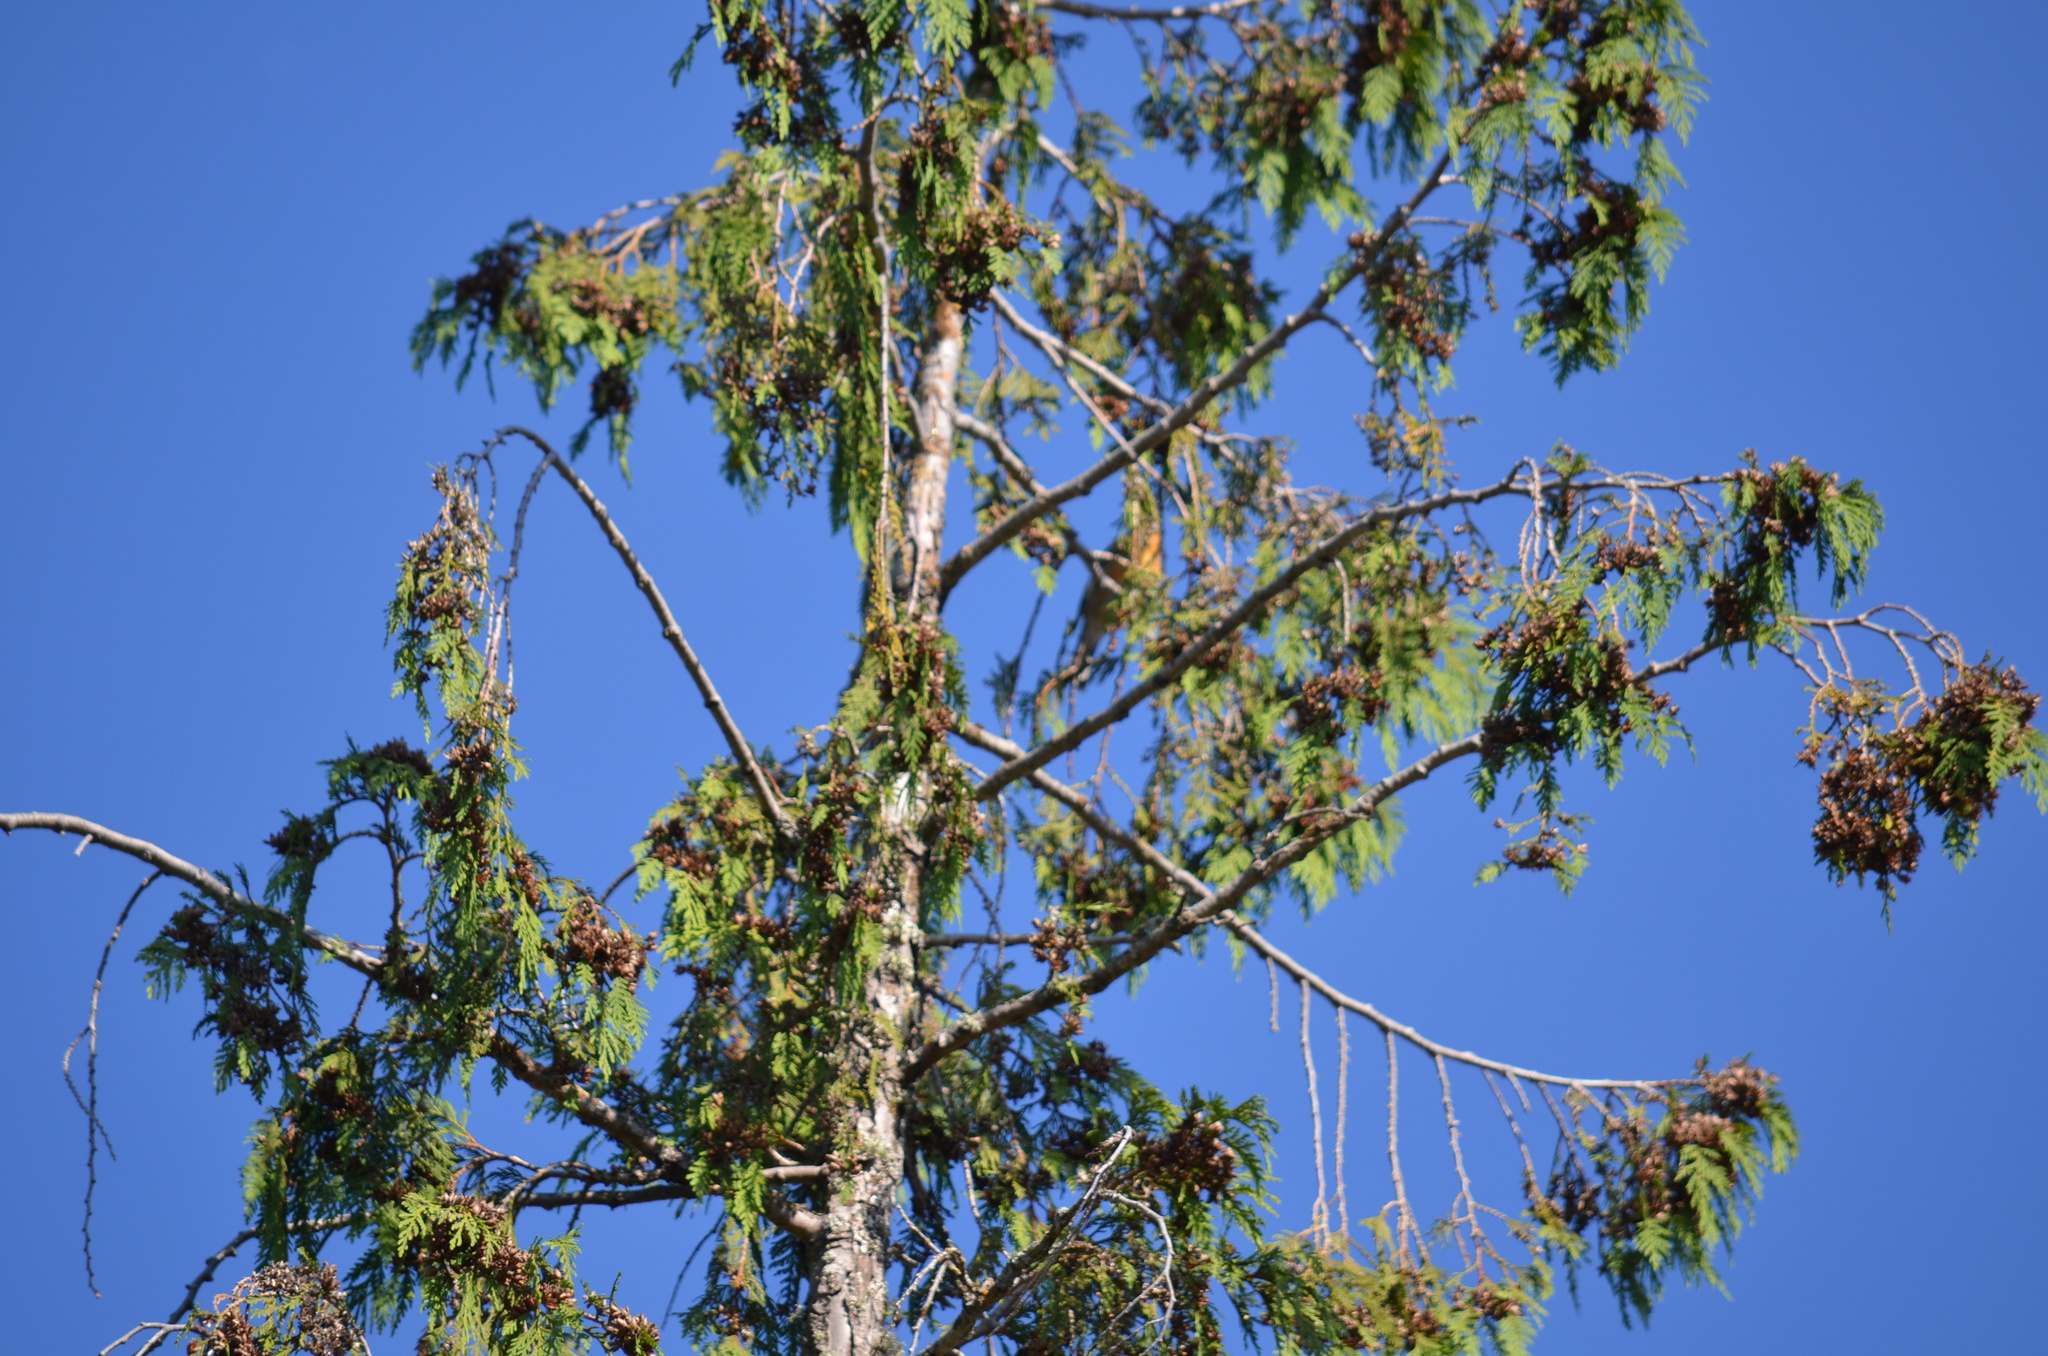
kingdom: Animalia
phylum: Chordata
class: Aves
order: Passeriformes
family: Cardinalidae
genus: Pheucticus
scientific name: Pheucticus melanocephalus
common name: Black-headed grosbeak
